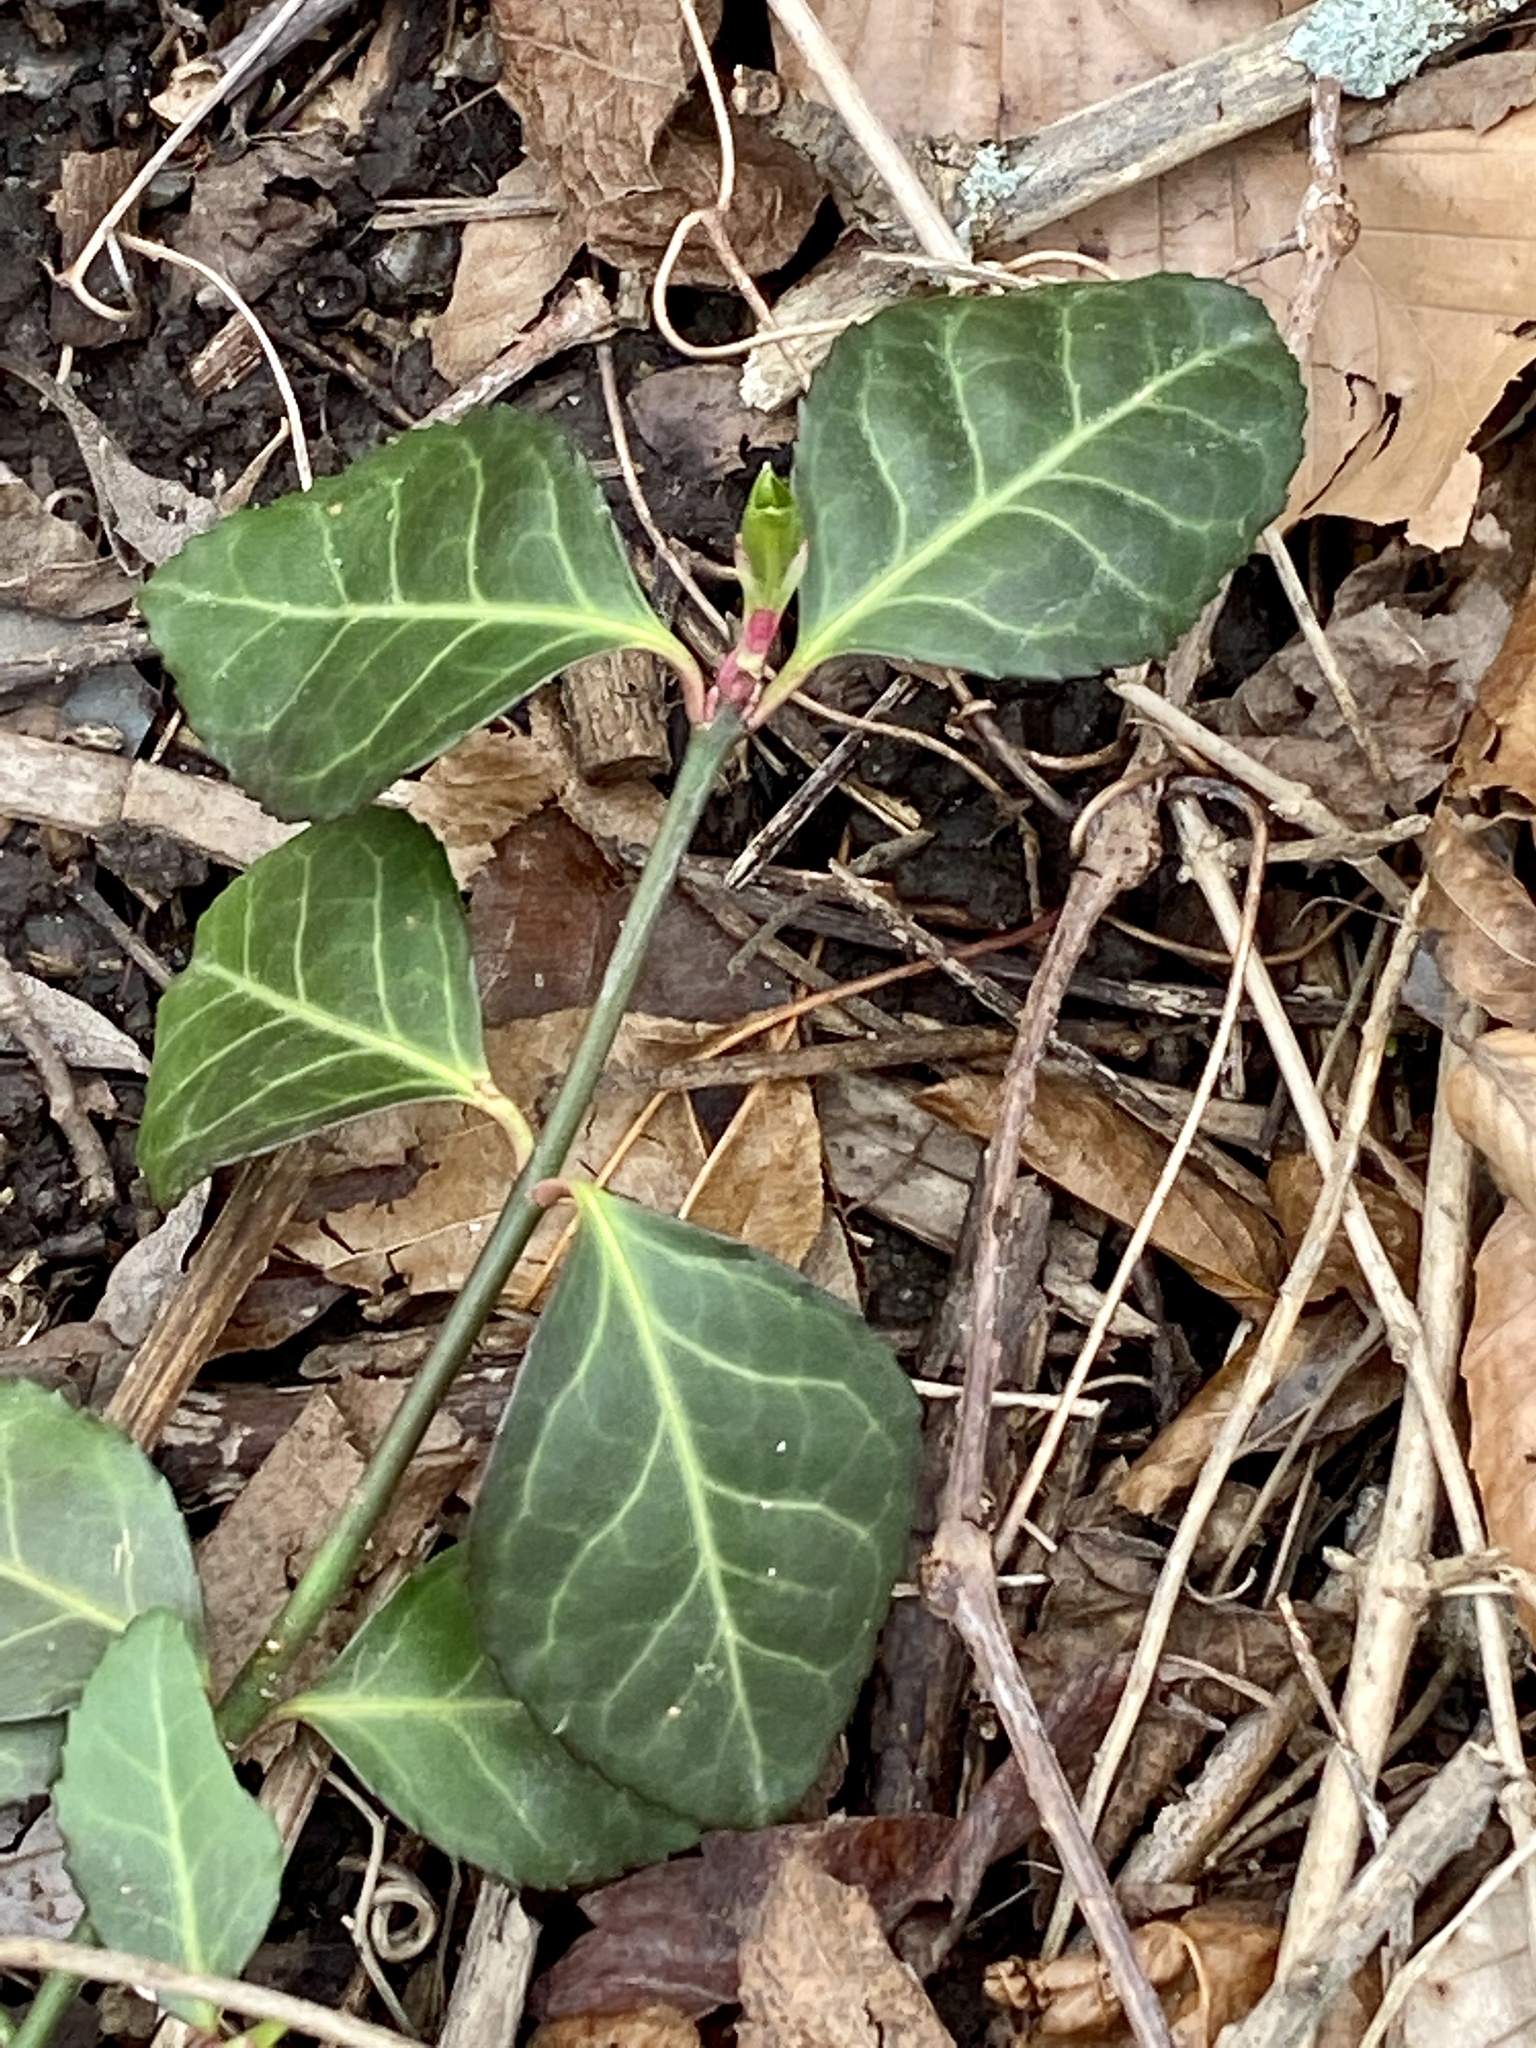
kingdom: Plantae
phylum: Tracheophyta
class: Magnoliopsida
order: Celastrales
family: Celastraceae
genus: Euonymus
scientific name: Euonymus fortunei
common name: Climbing euonymus
